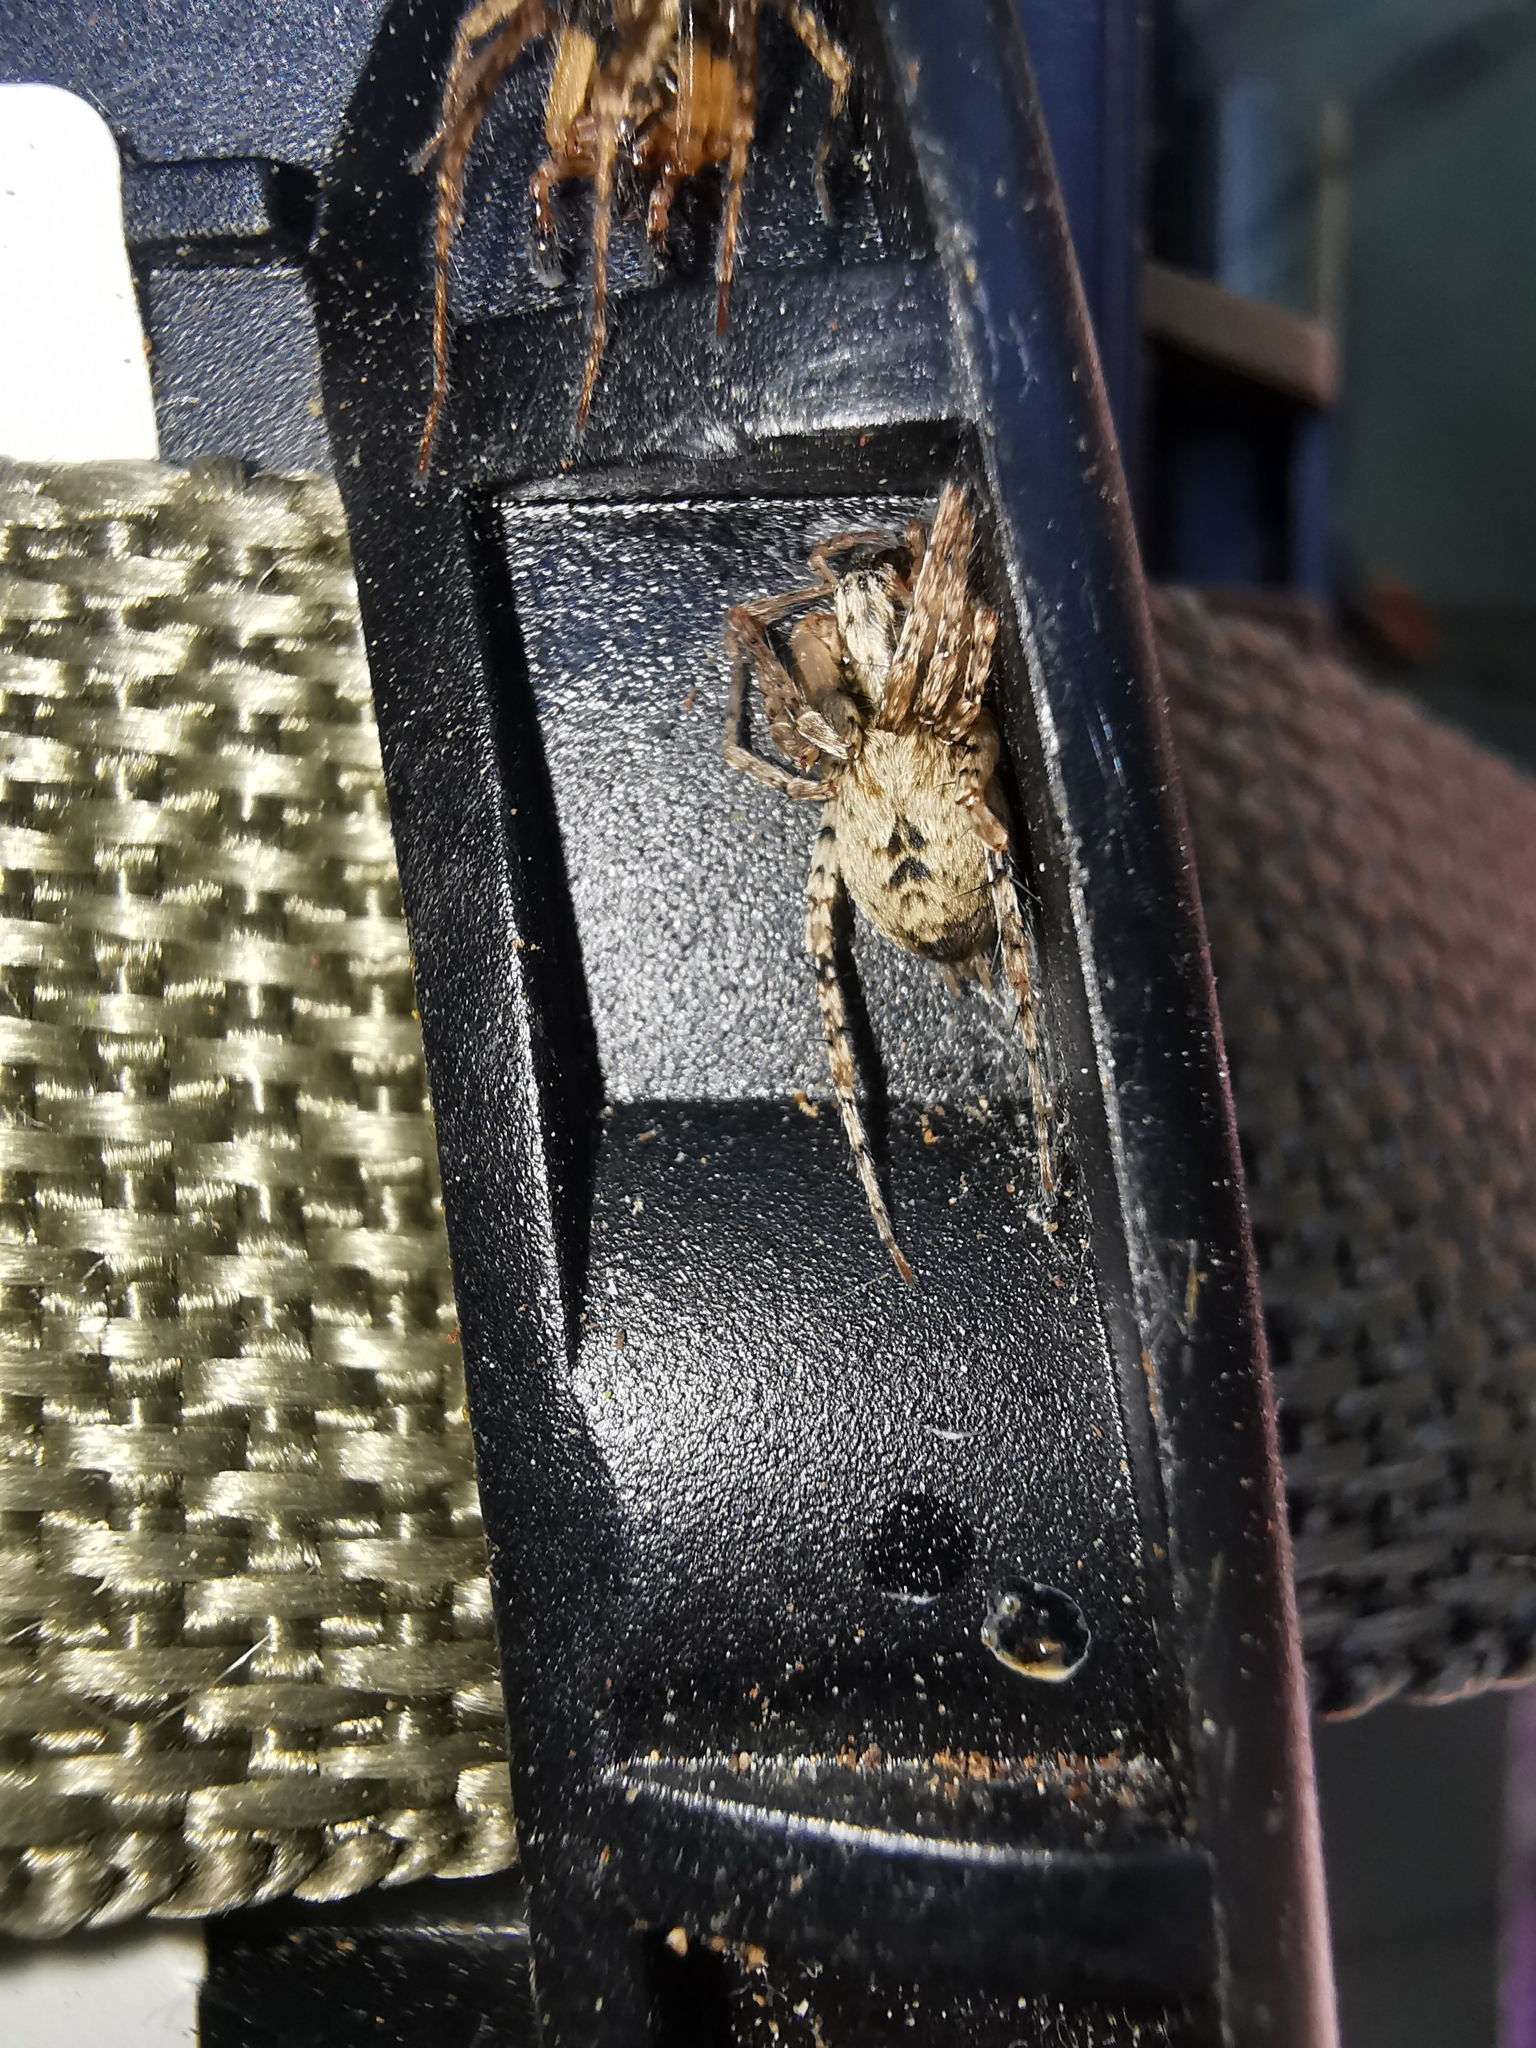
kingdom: Animalia
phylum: Arthropoda
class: Arachnida
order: Araneae
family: Anyphaenidae
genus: Anyphaena
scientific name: Anyphaena accentuata
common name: Buzzing spider
